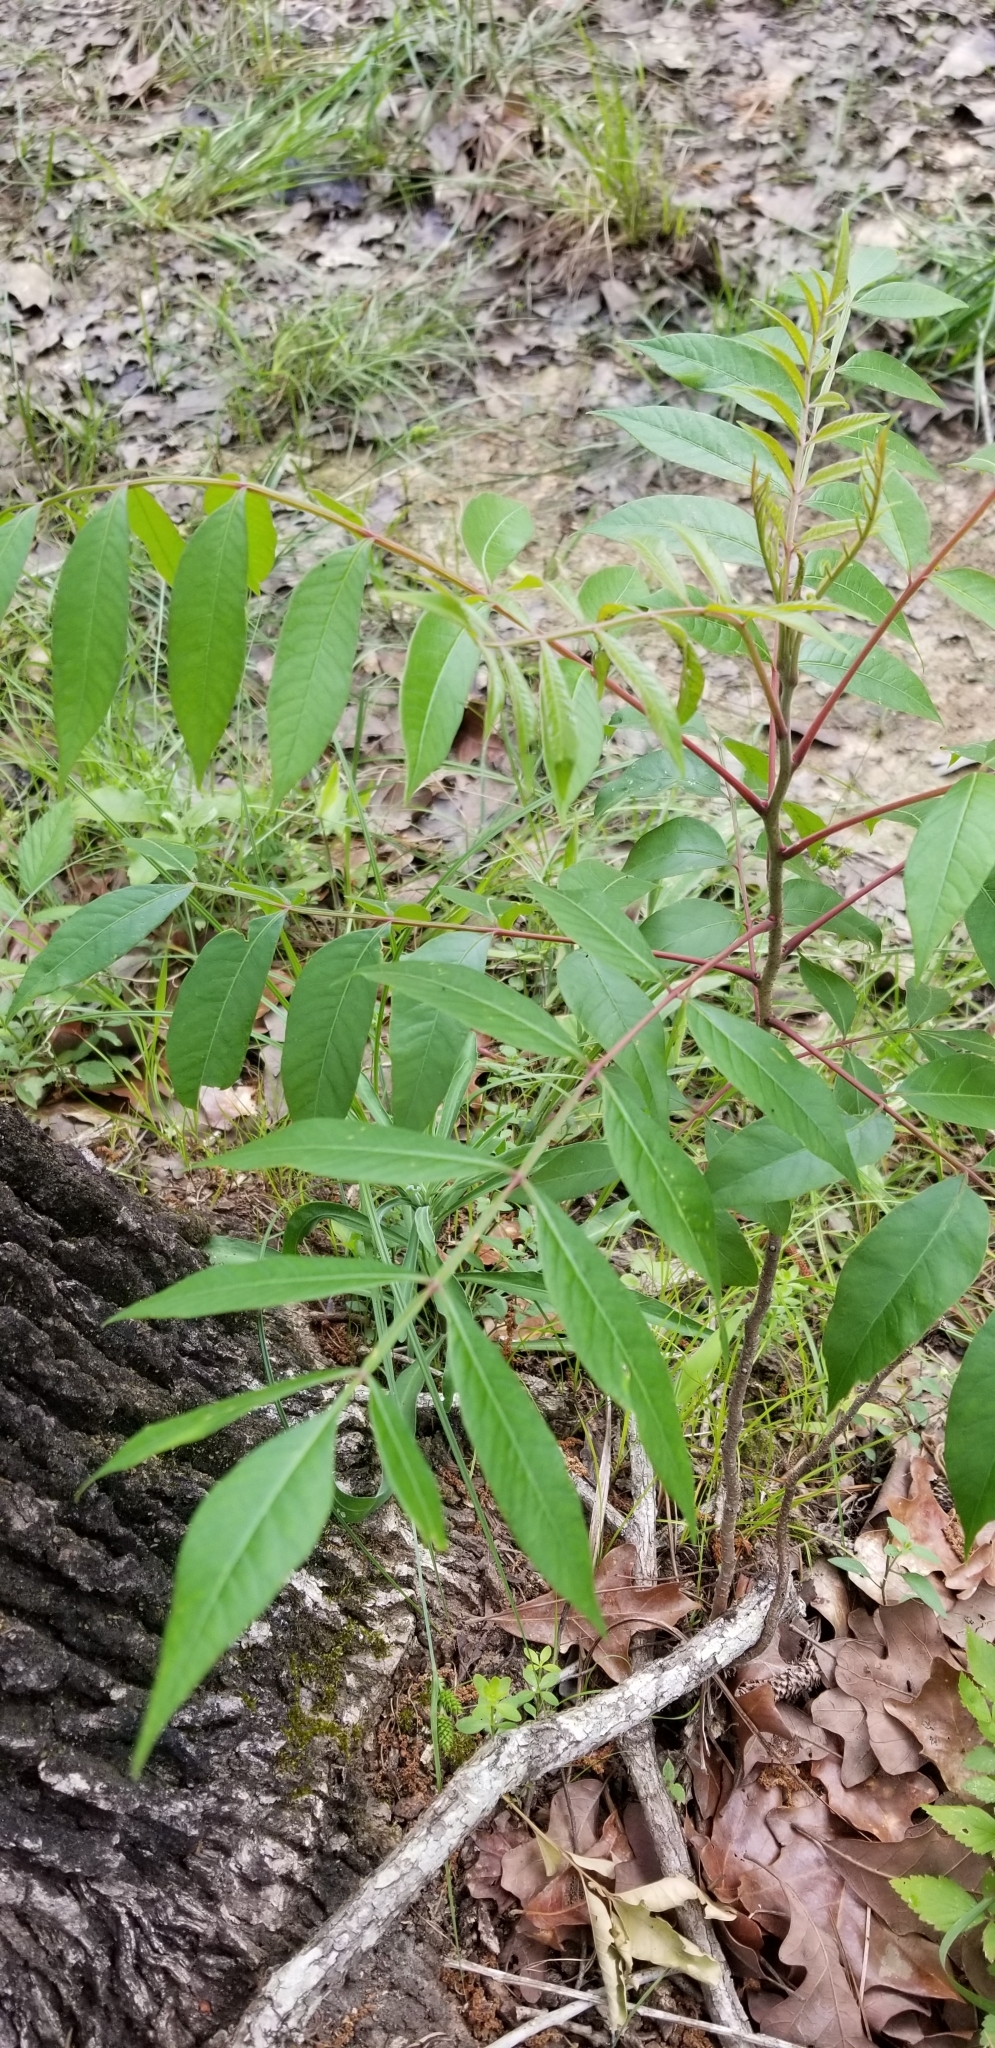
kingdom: Plantae
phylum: Tracheophyta
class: Magnoliopsida
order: Sapindales
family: Anacardiaceae
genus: Rhus
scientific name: Rhus copallina
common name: Shining sumac
